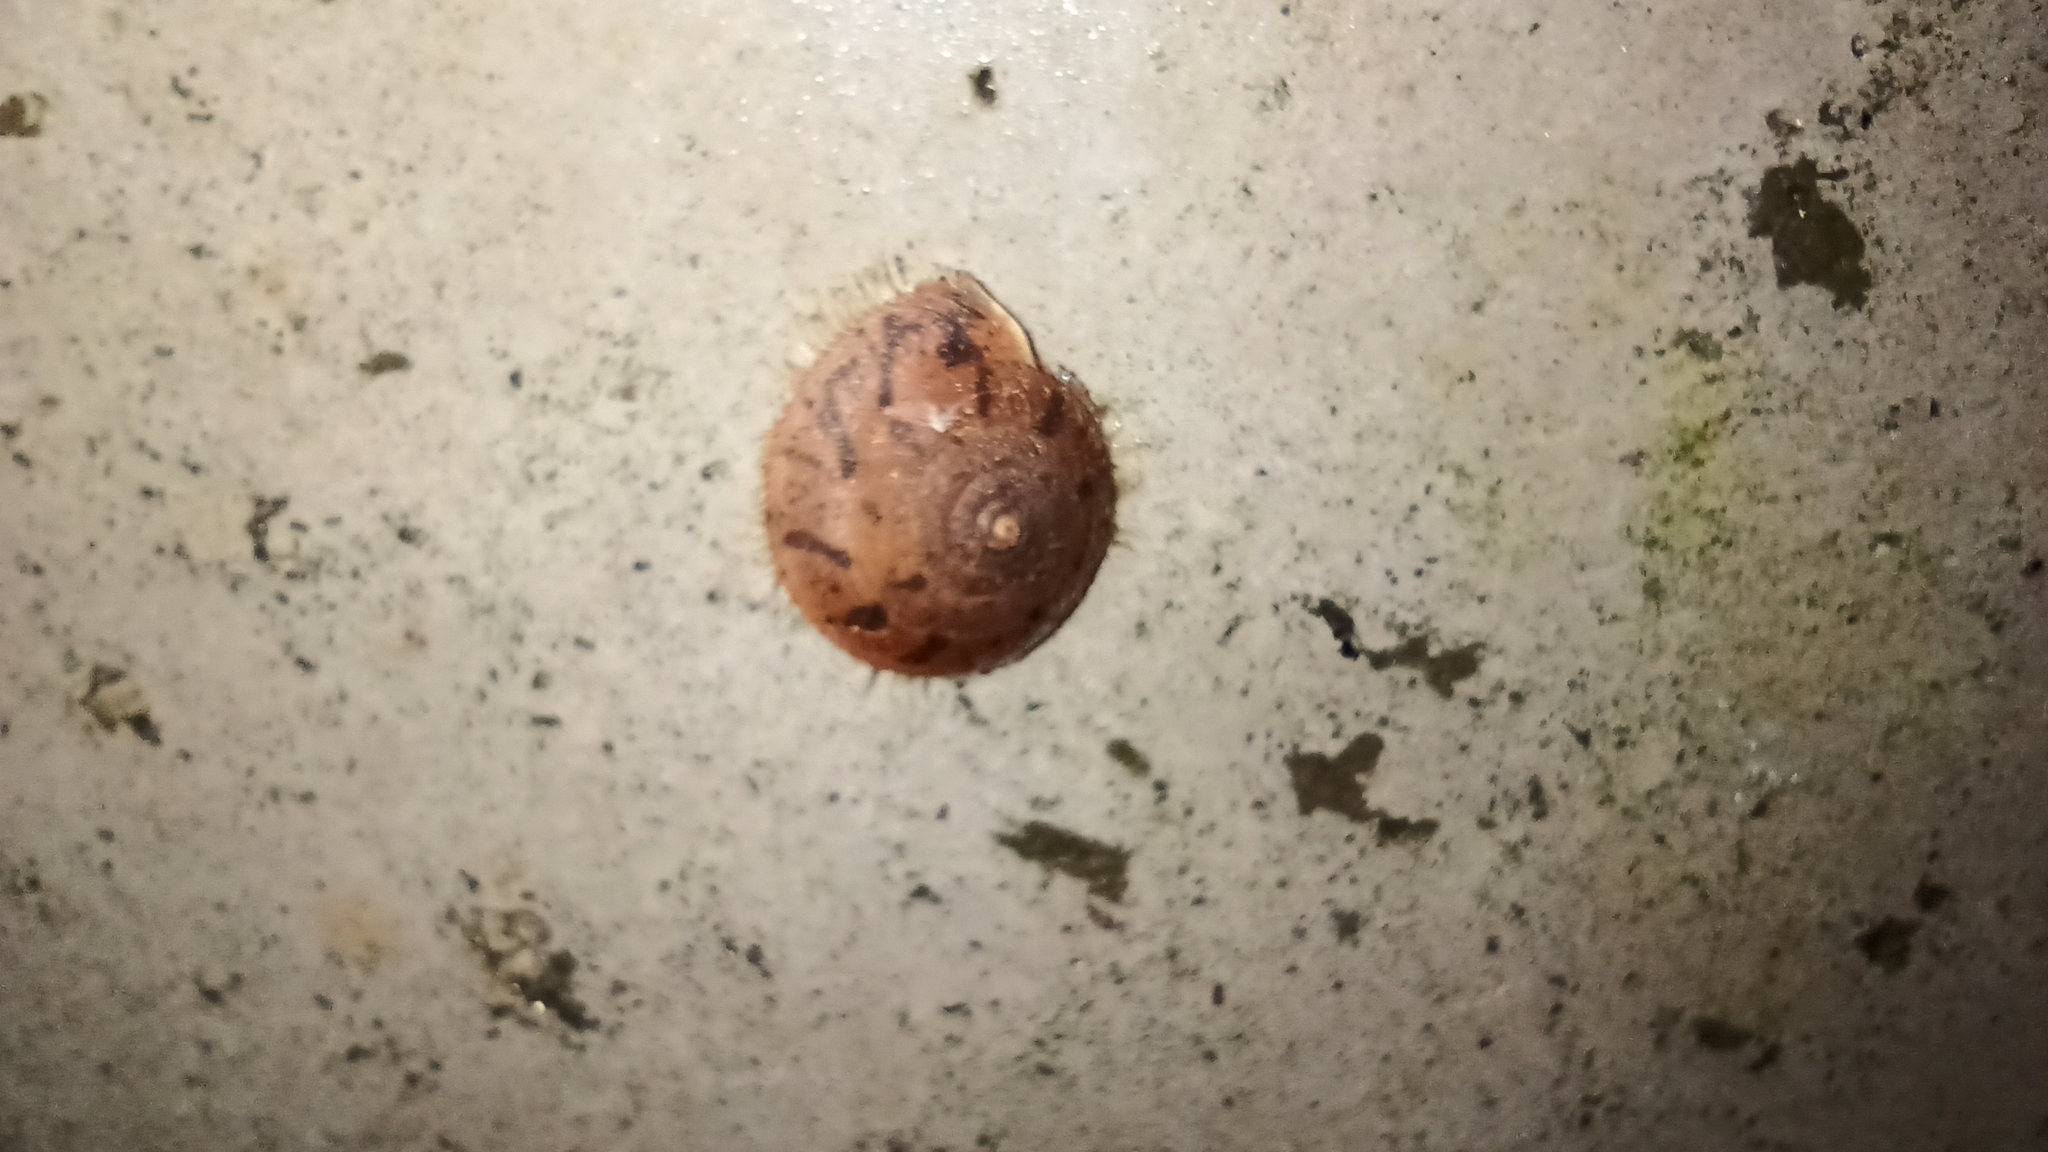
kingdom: Animalia
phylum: Mollusca
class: Gastropoda
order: Stylommatophora
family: Camaenidae
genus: Plectotropis
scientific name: Plectotropis vulgivaga
